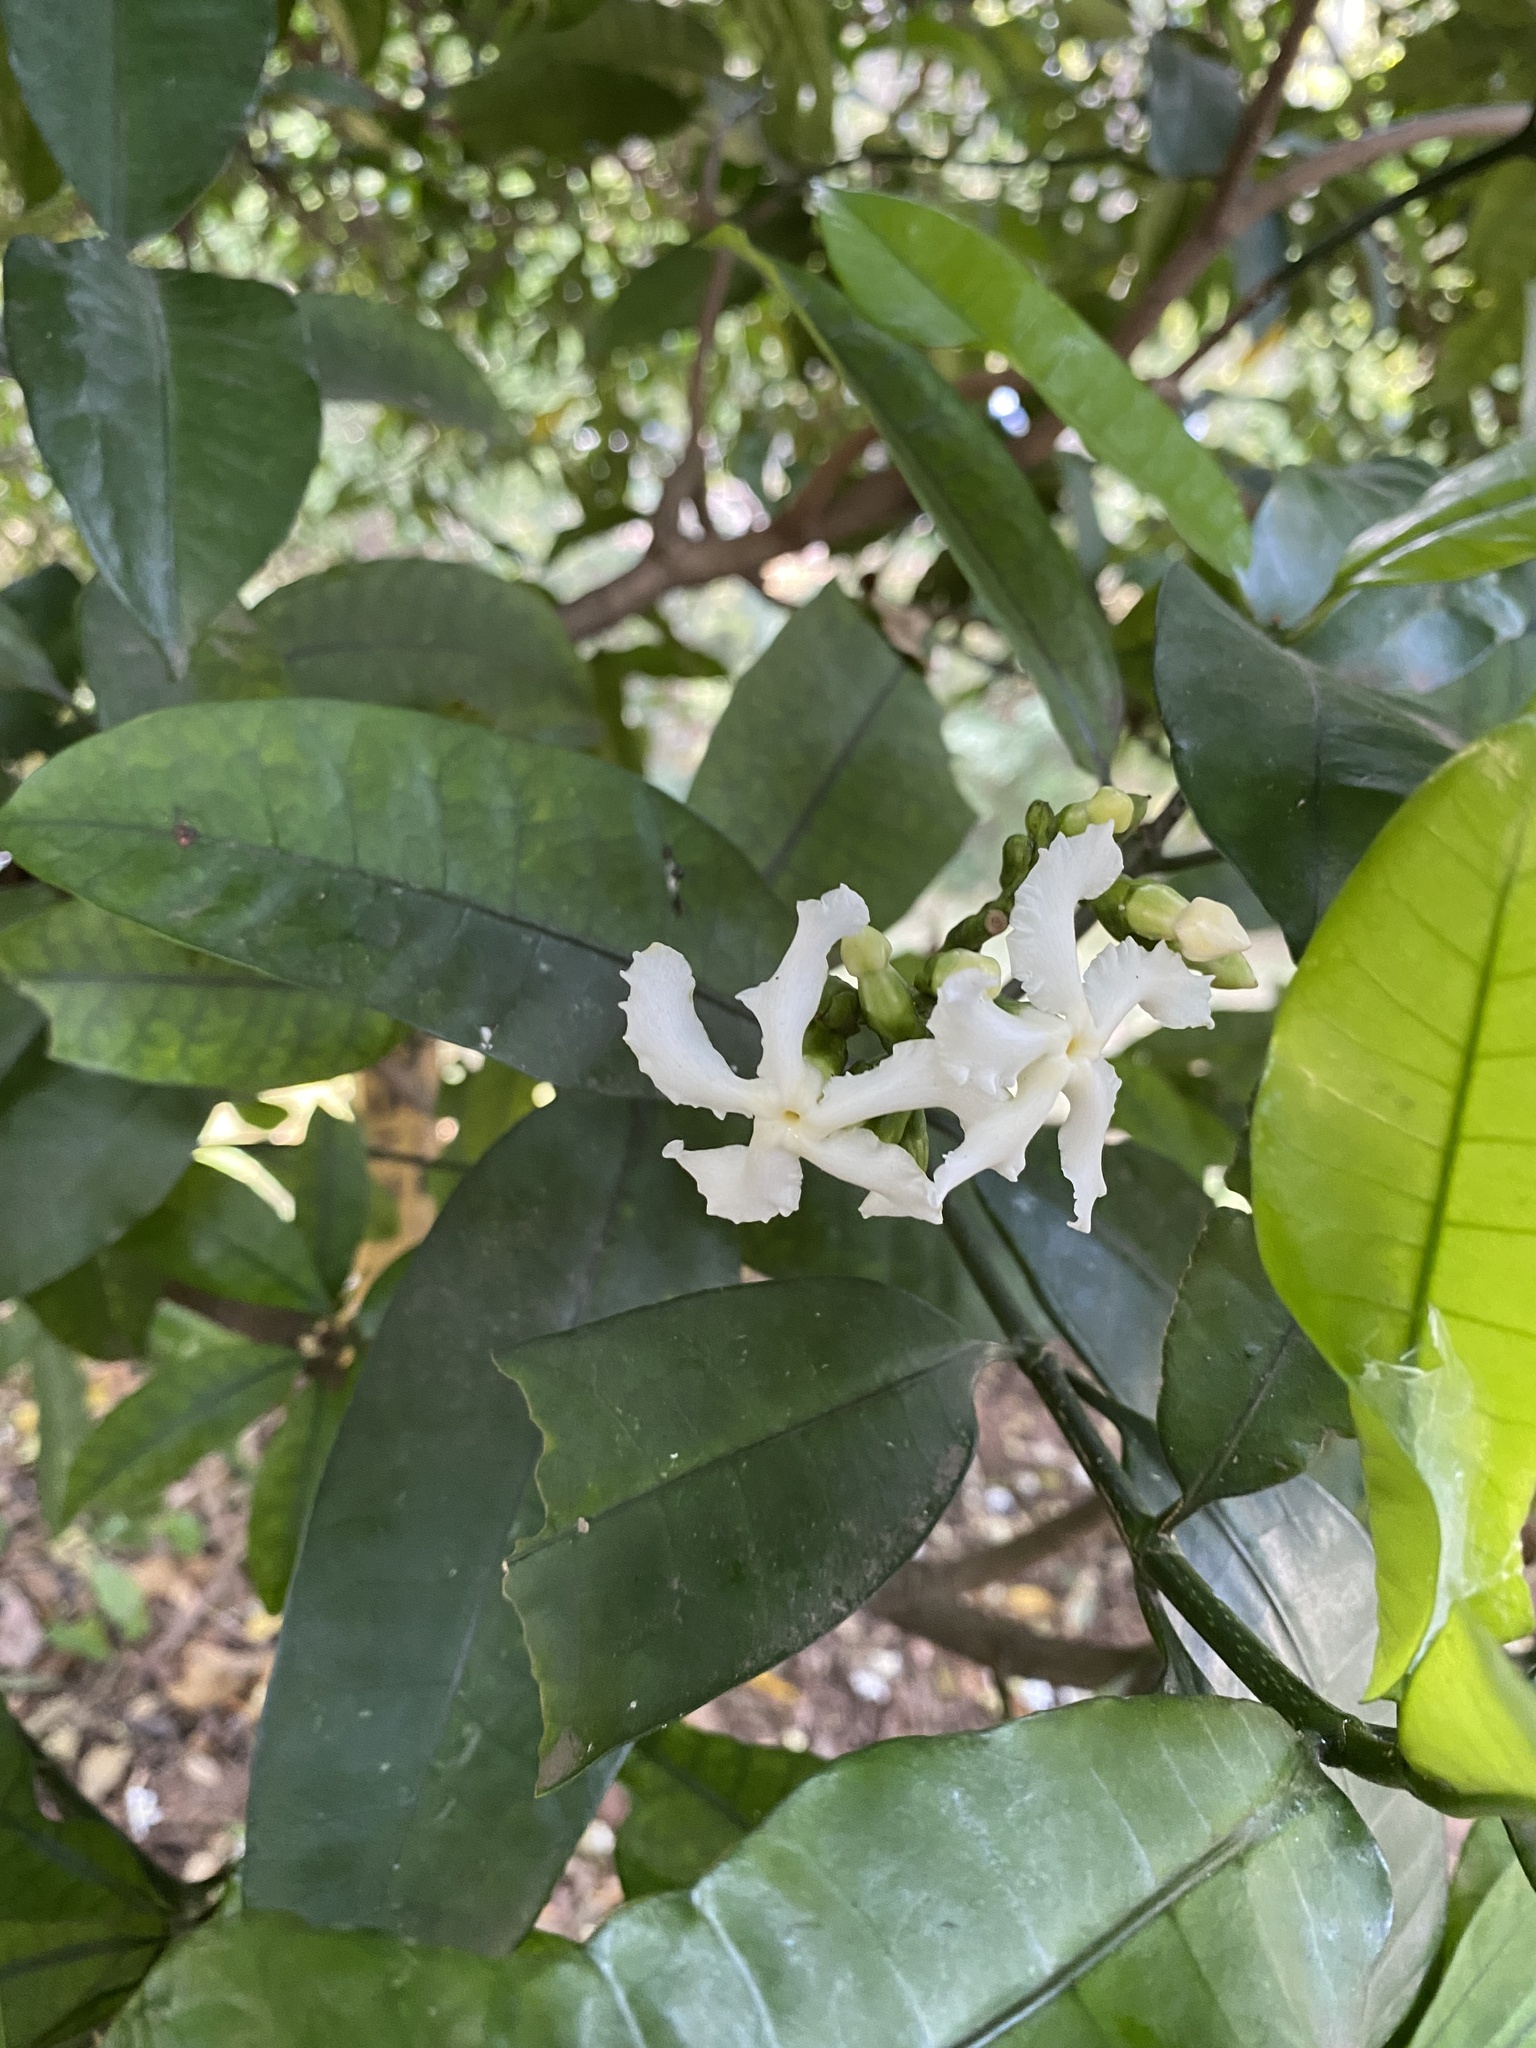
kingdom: Plantae
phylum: Tracheophyta
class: Magnoliopsida
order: Gentianales
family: Apocynaceae
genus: Tabernaemontana
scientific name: Tabernaemontana ventricosa
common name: Forest toad-tree
